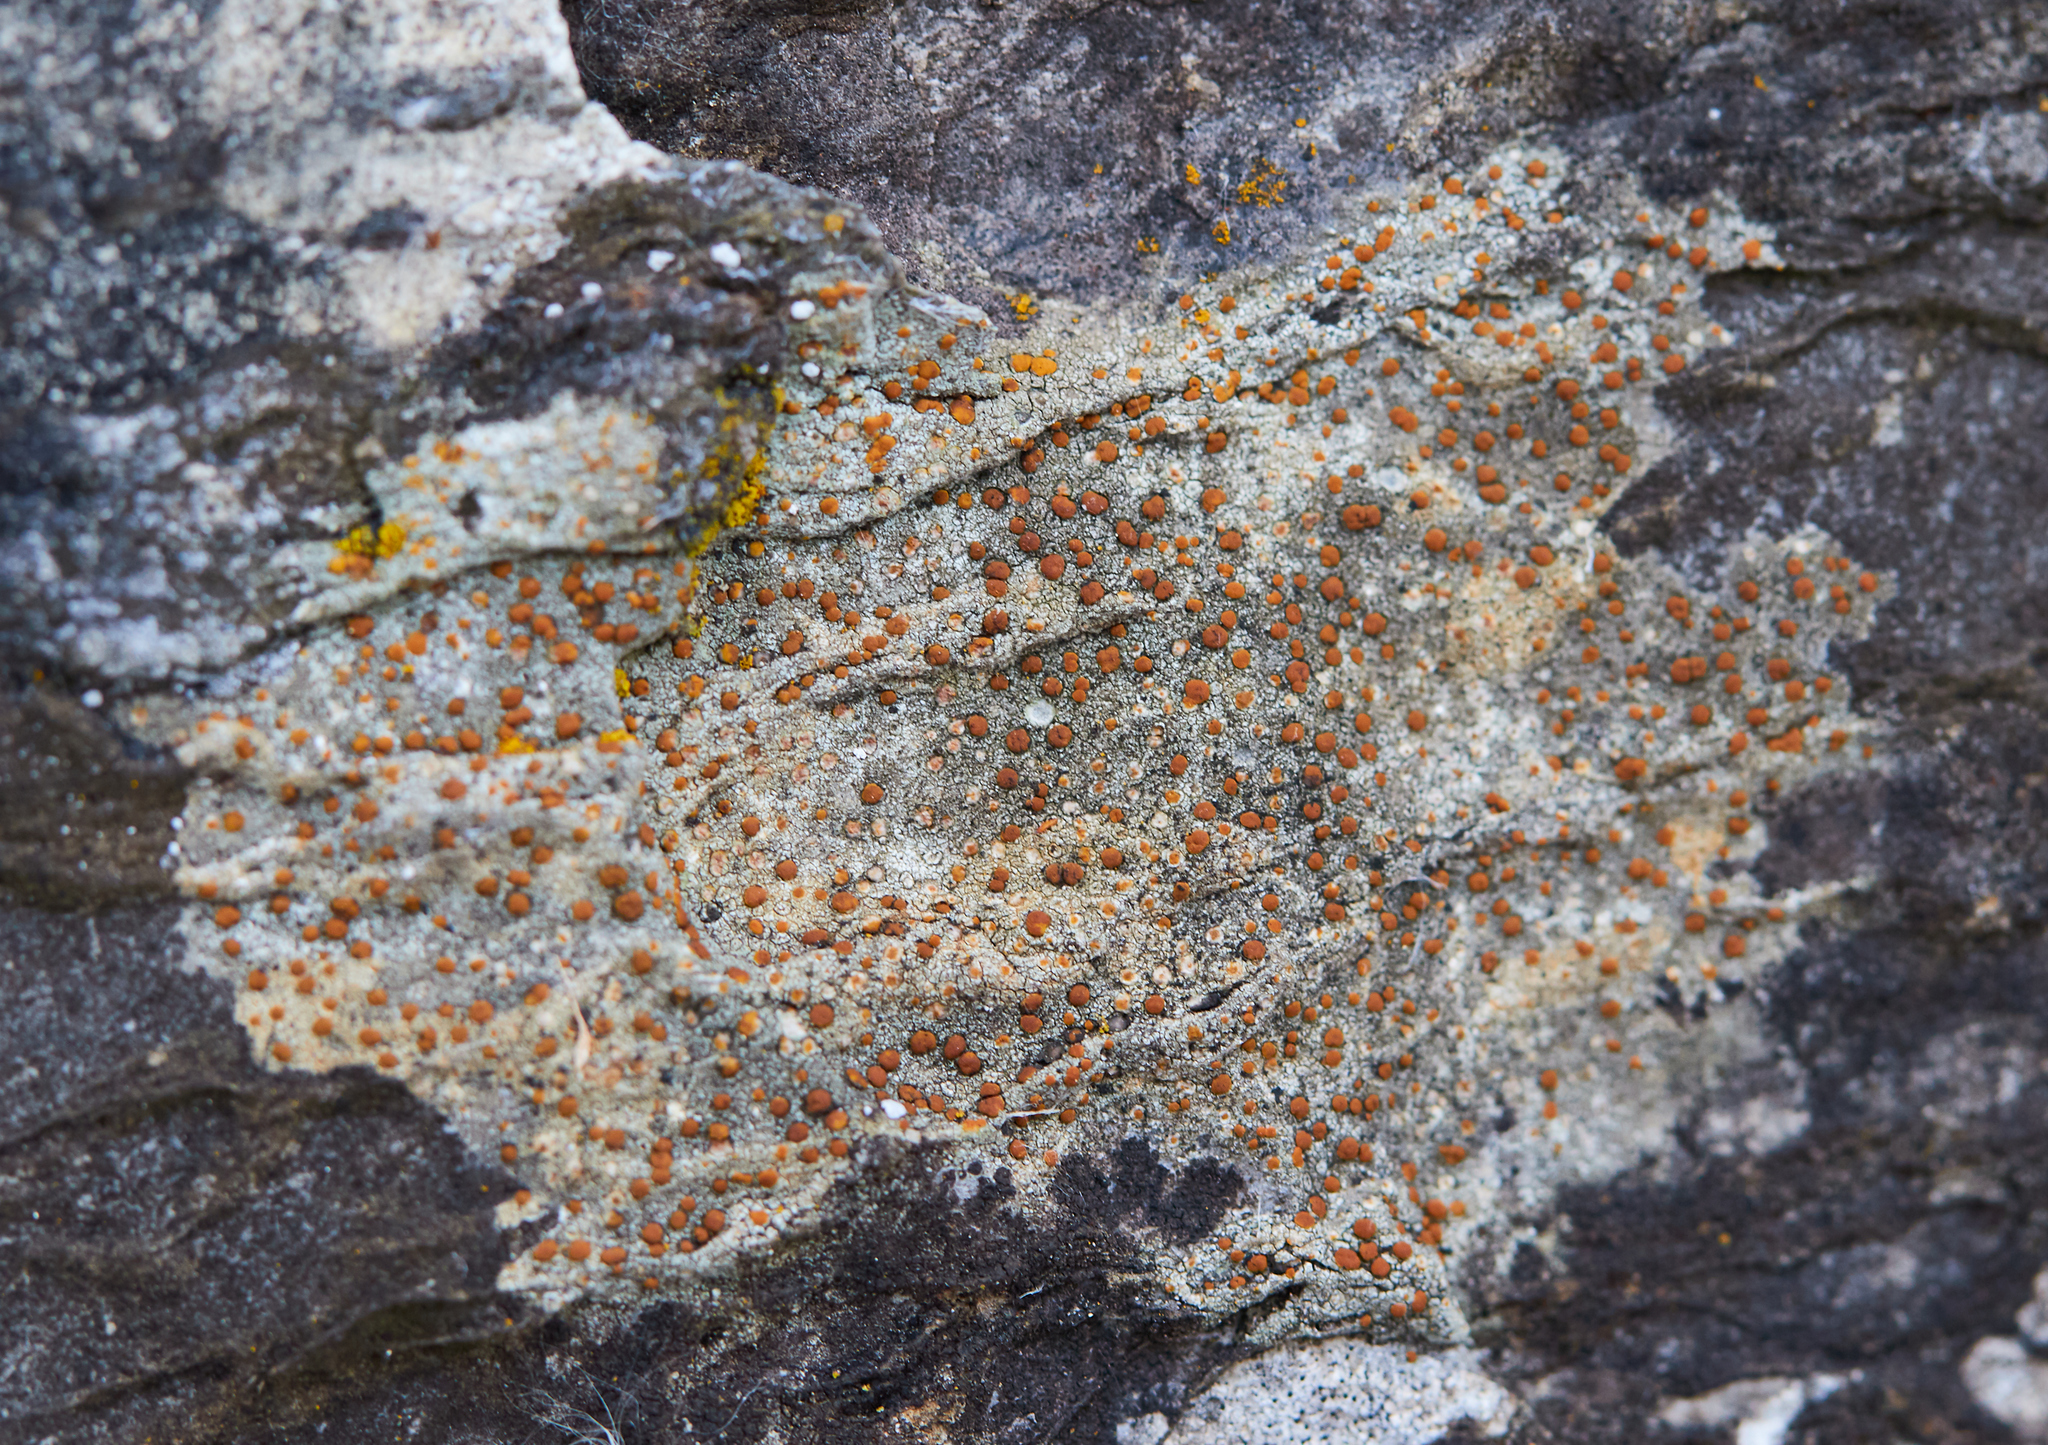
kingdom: Fungi
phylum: Ascomycota
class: Lecanoromycetes
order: Teloschistales
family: Teloschistaceae
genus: Gyalolechia
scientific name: Gyalolechia flavovirescens
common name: Sulphur firedot
